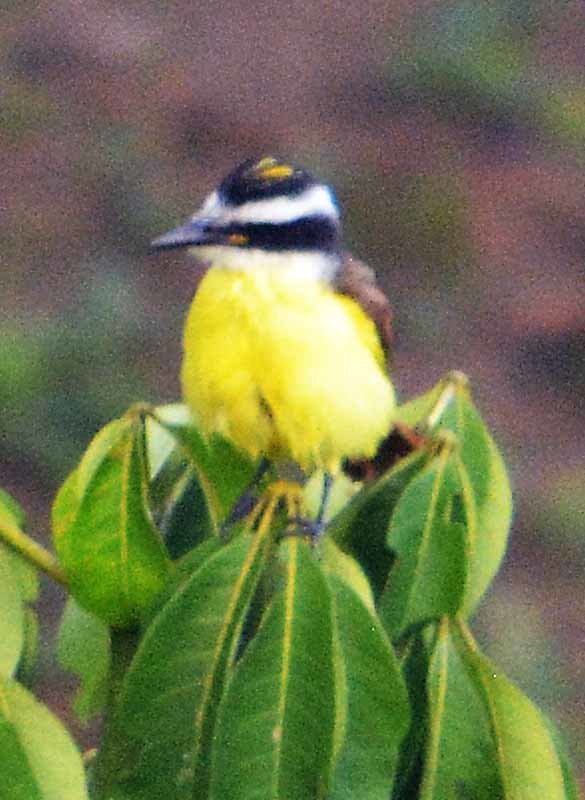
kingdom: Animalia
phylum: Chordata
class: Aves
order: Passeriformes
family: Tyrannidae
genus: Pitangus
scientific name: Pitangus sulphuratus
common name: Great kiskadee
